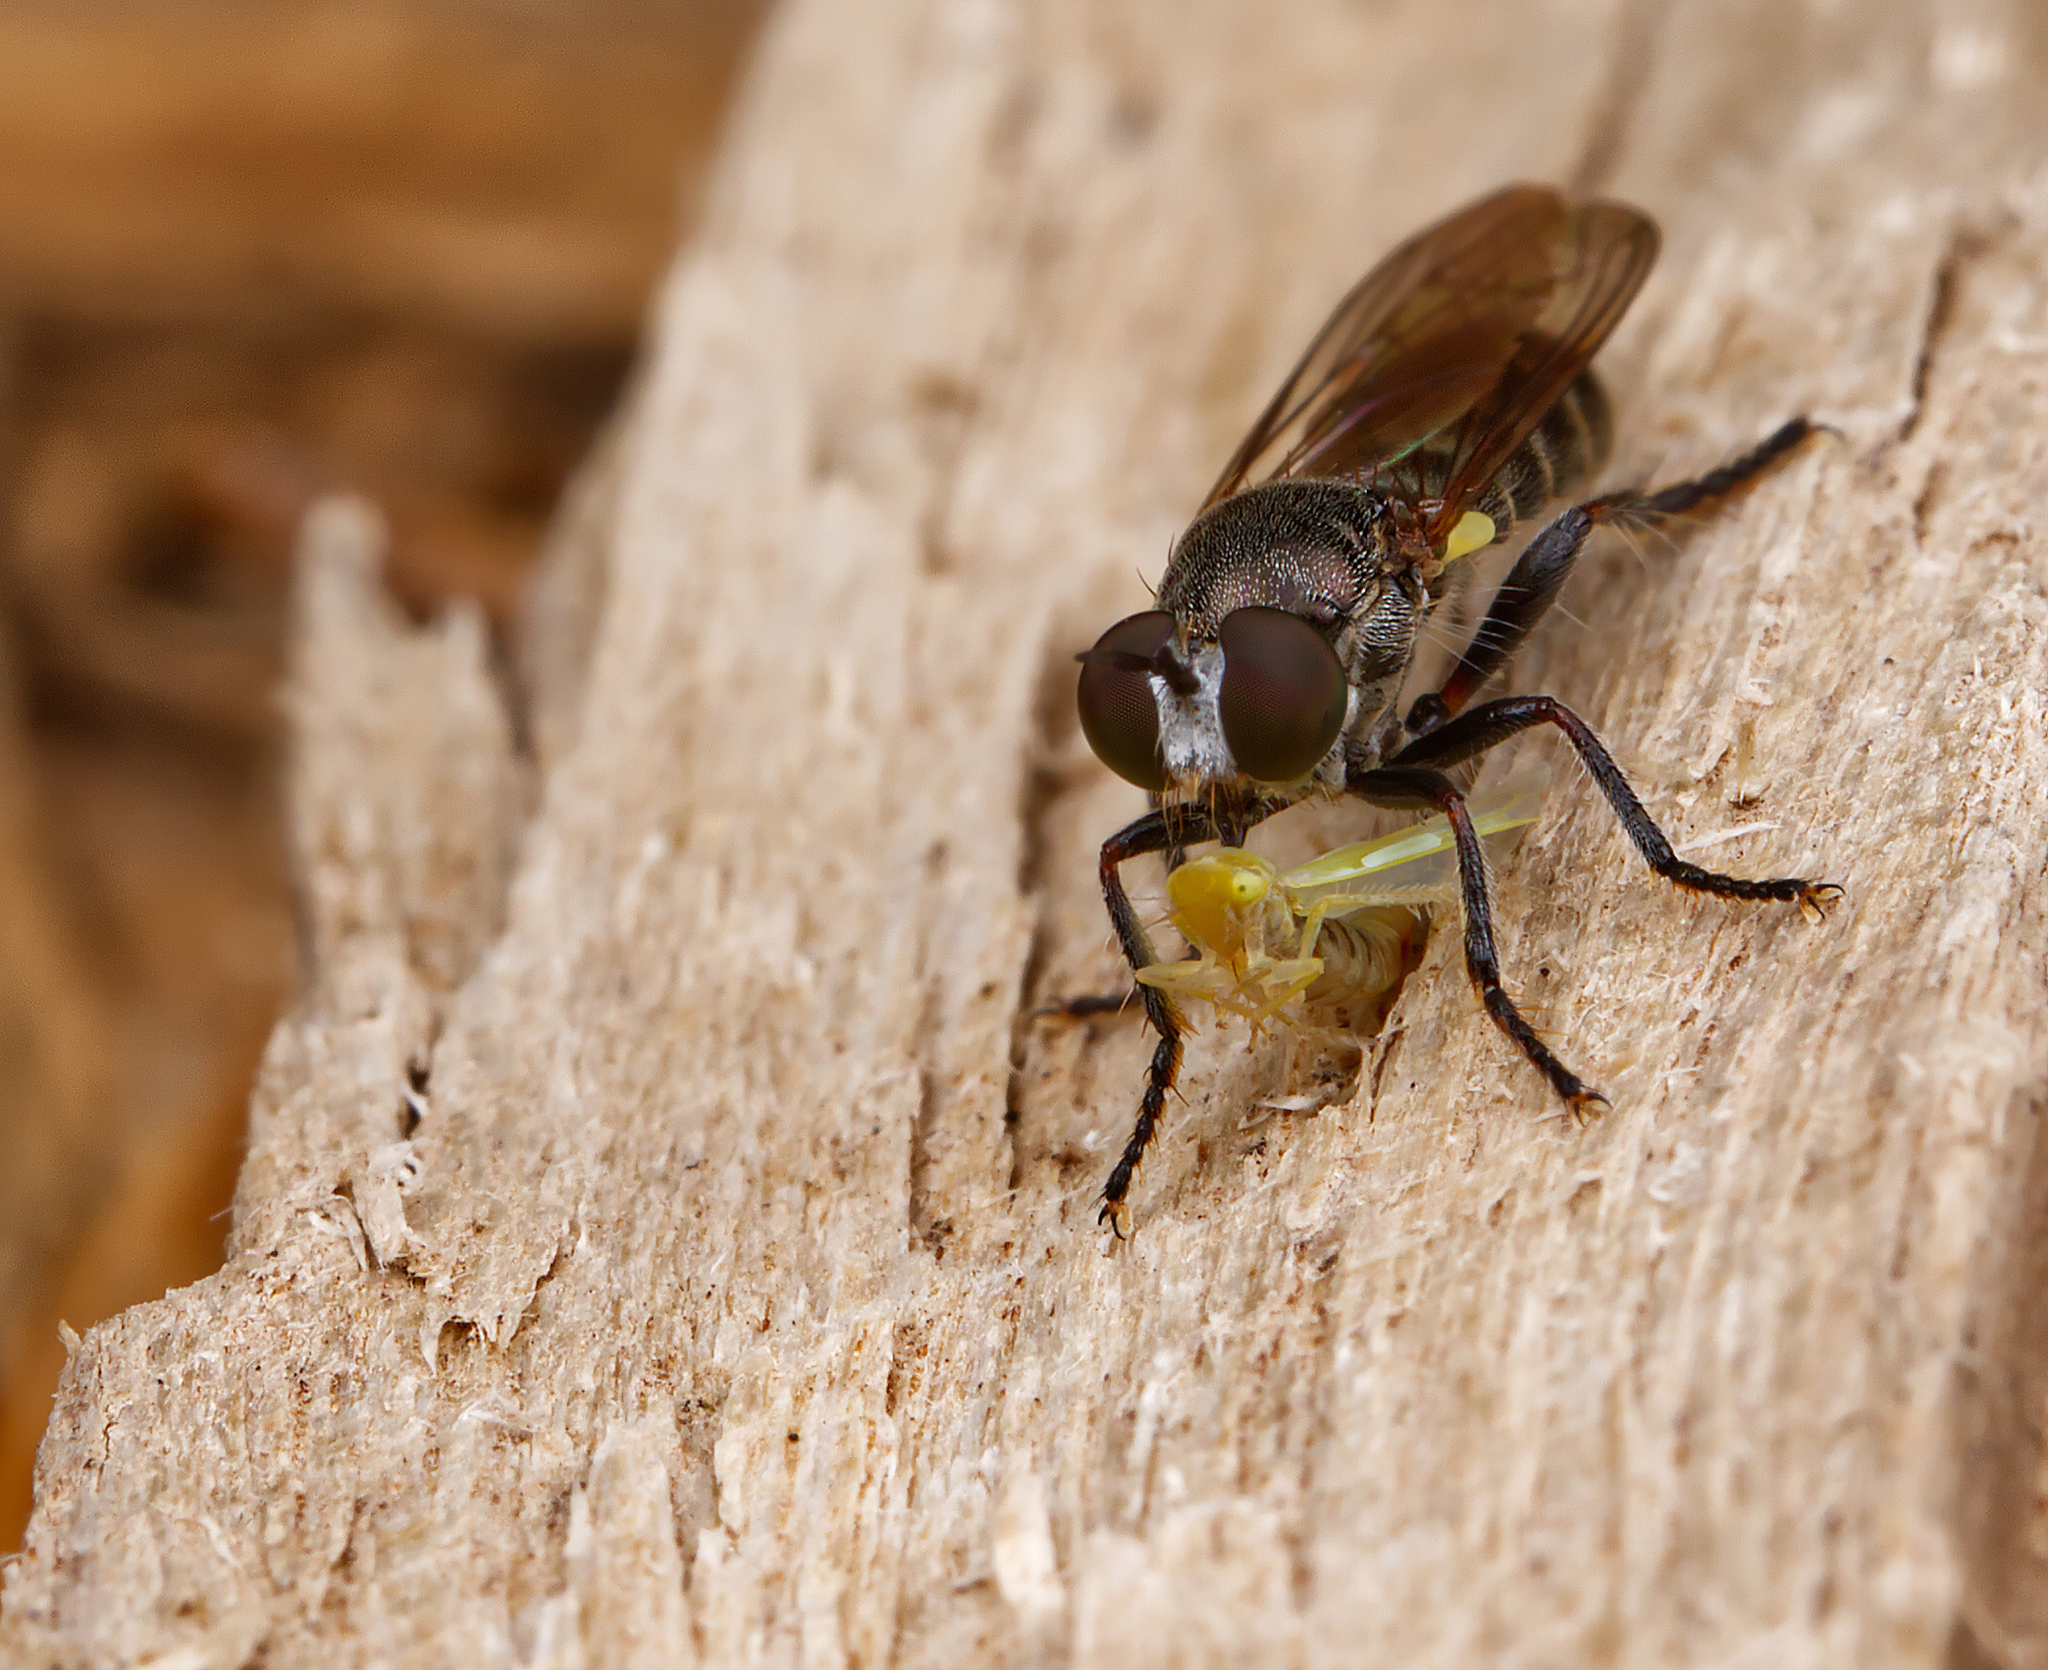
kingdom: Animalia
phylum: Arthropoda
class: Insecta
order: Diptera
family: Asilidae
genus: Atomosia
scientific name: Atomosia puella
